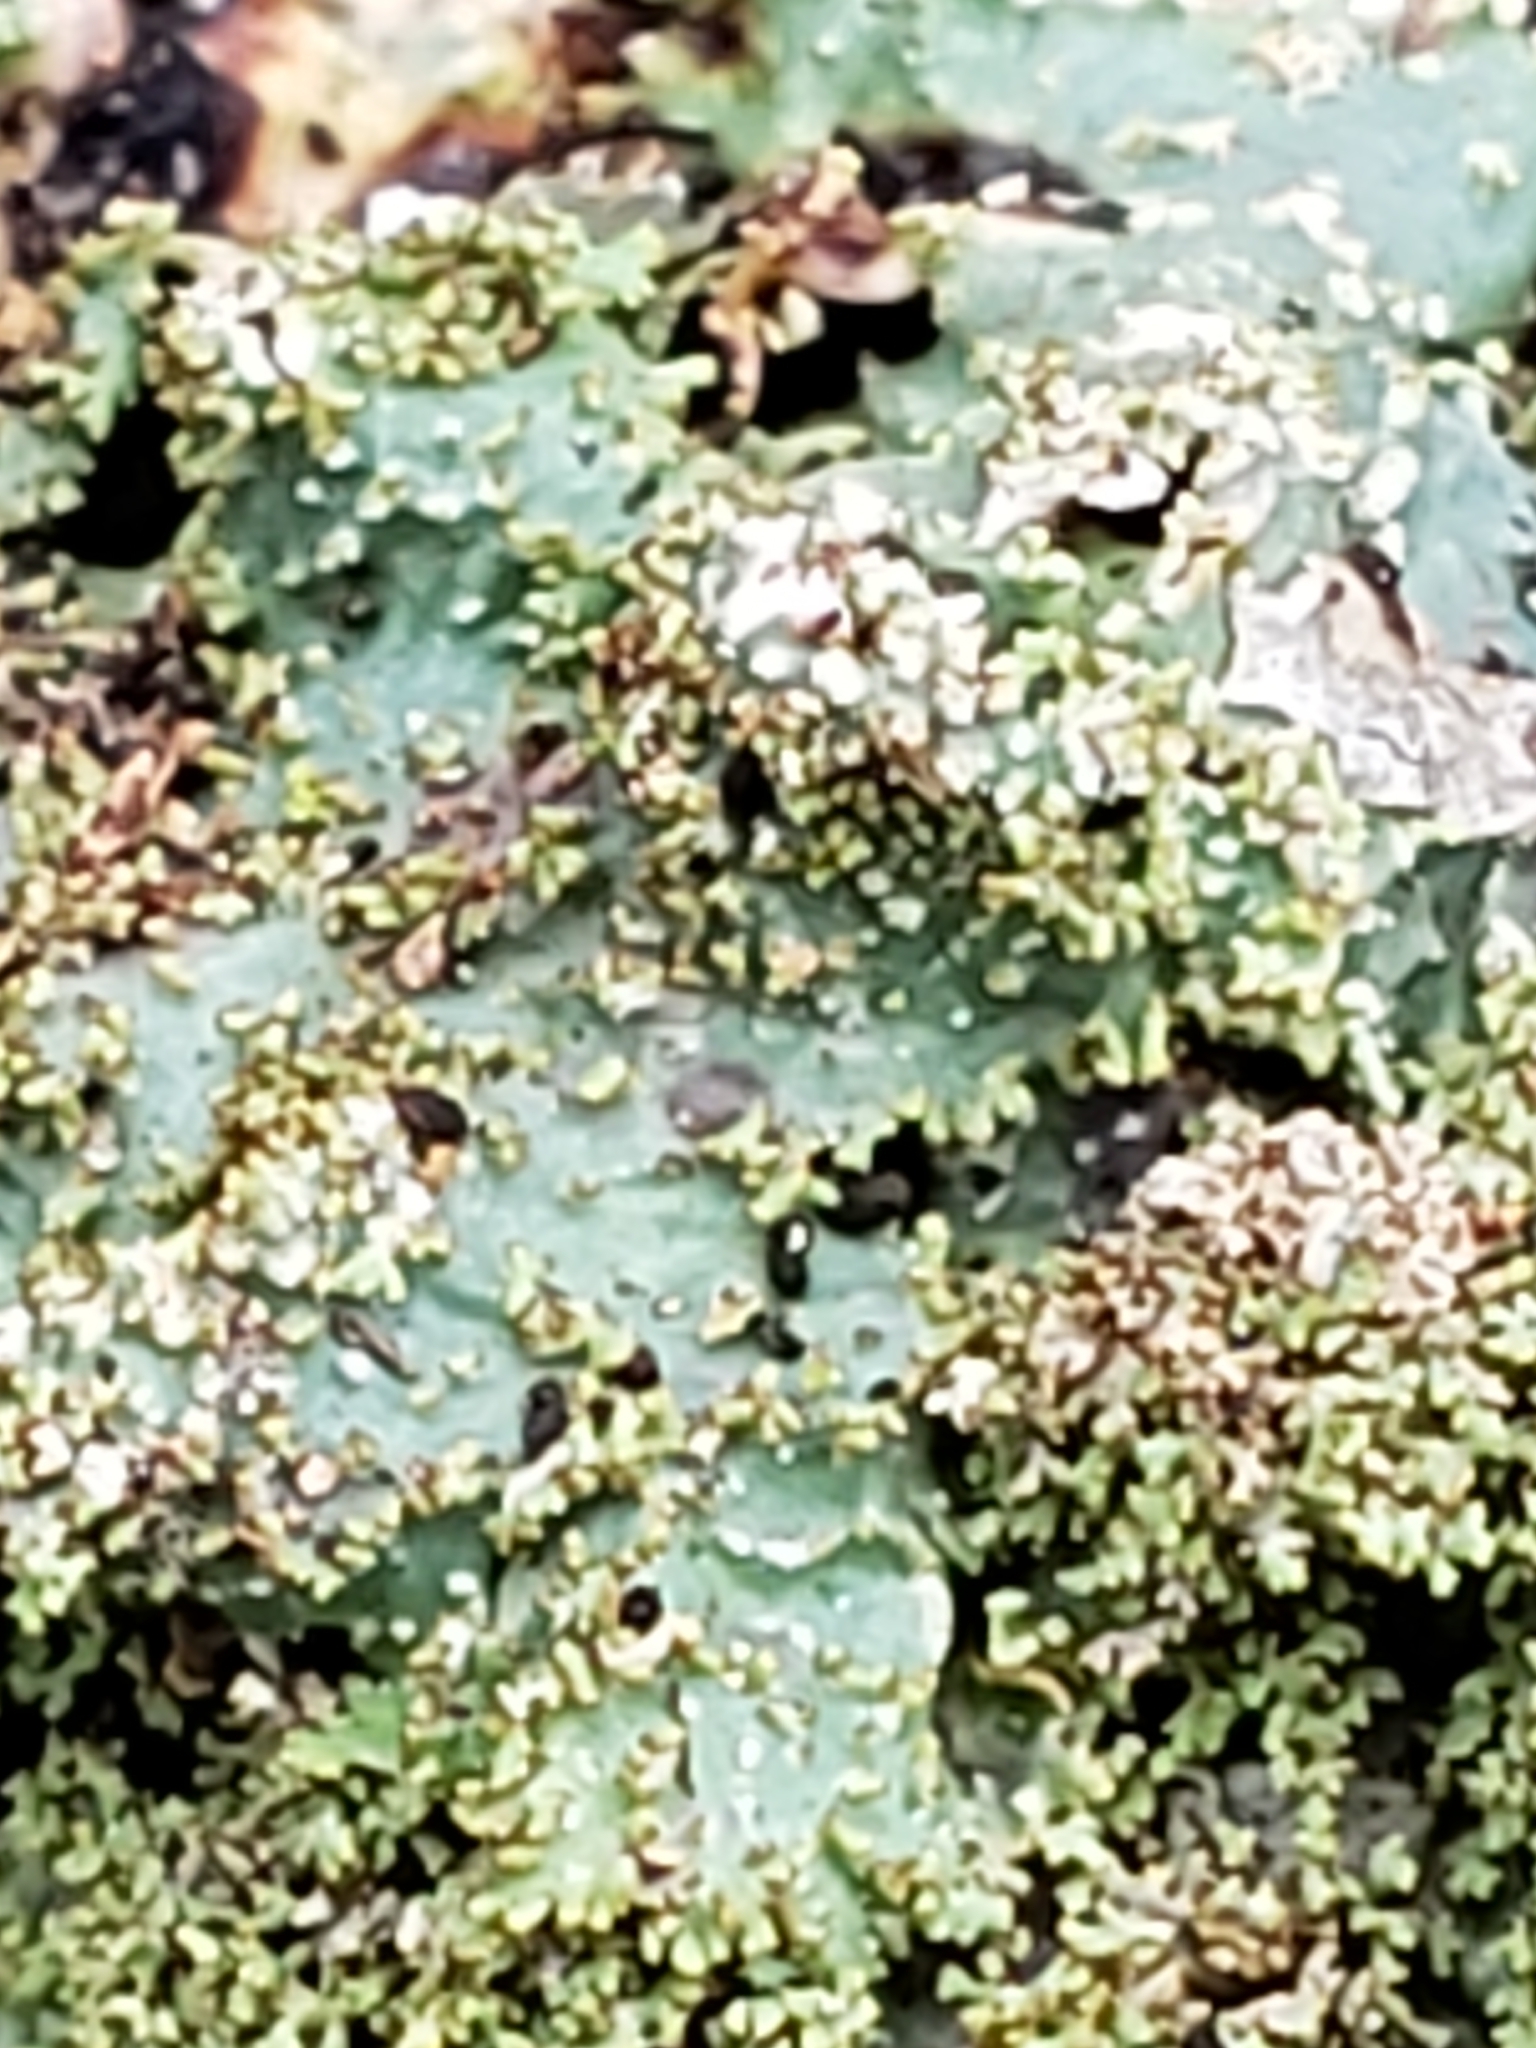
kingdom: Fungi
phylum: Ascomycota
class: Lecanoromycetes
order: Lecanorales
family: Parmeliaceae
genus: Punctelia
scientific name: Punctelia rudecta
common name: Rough speckled shield lichen
